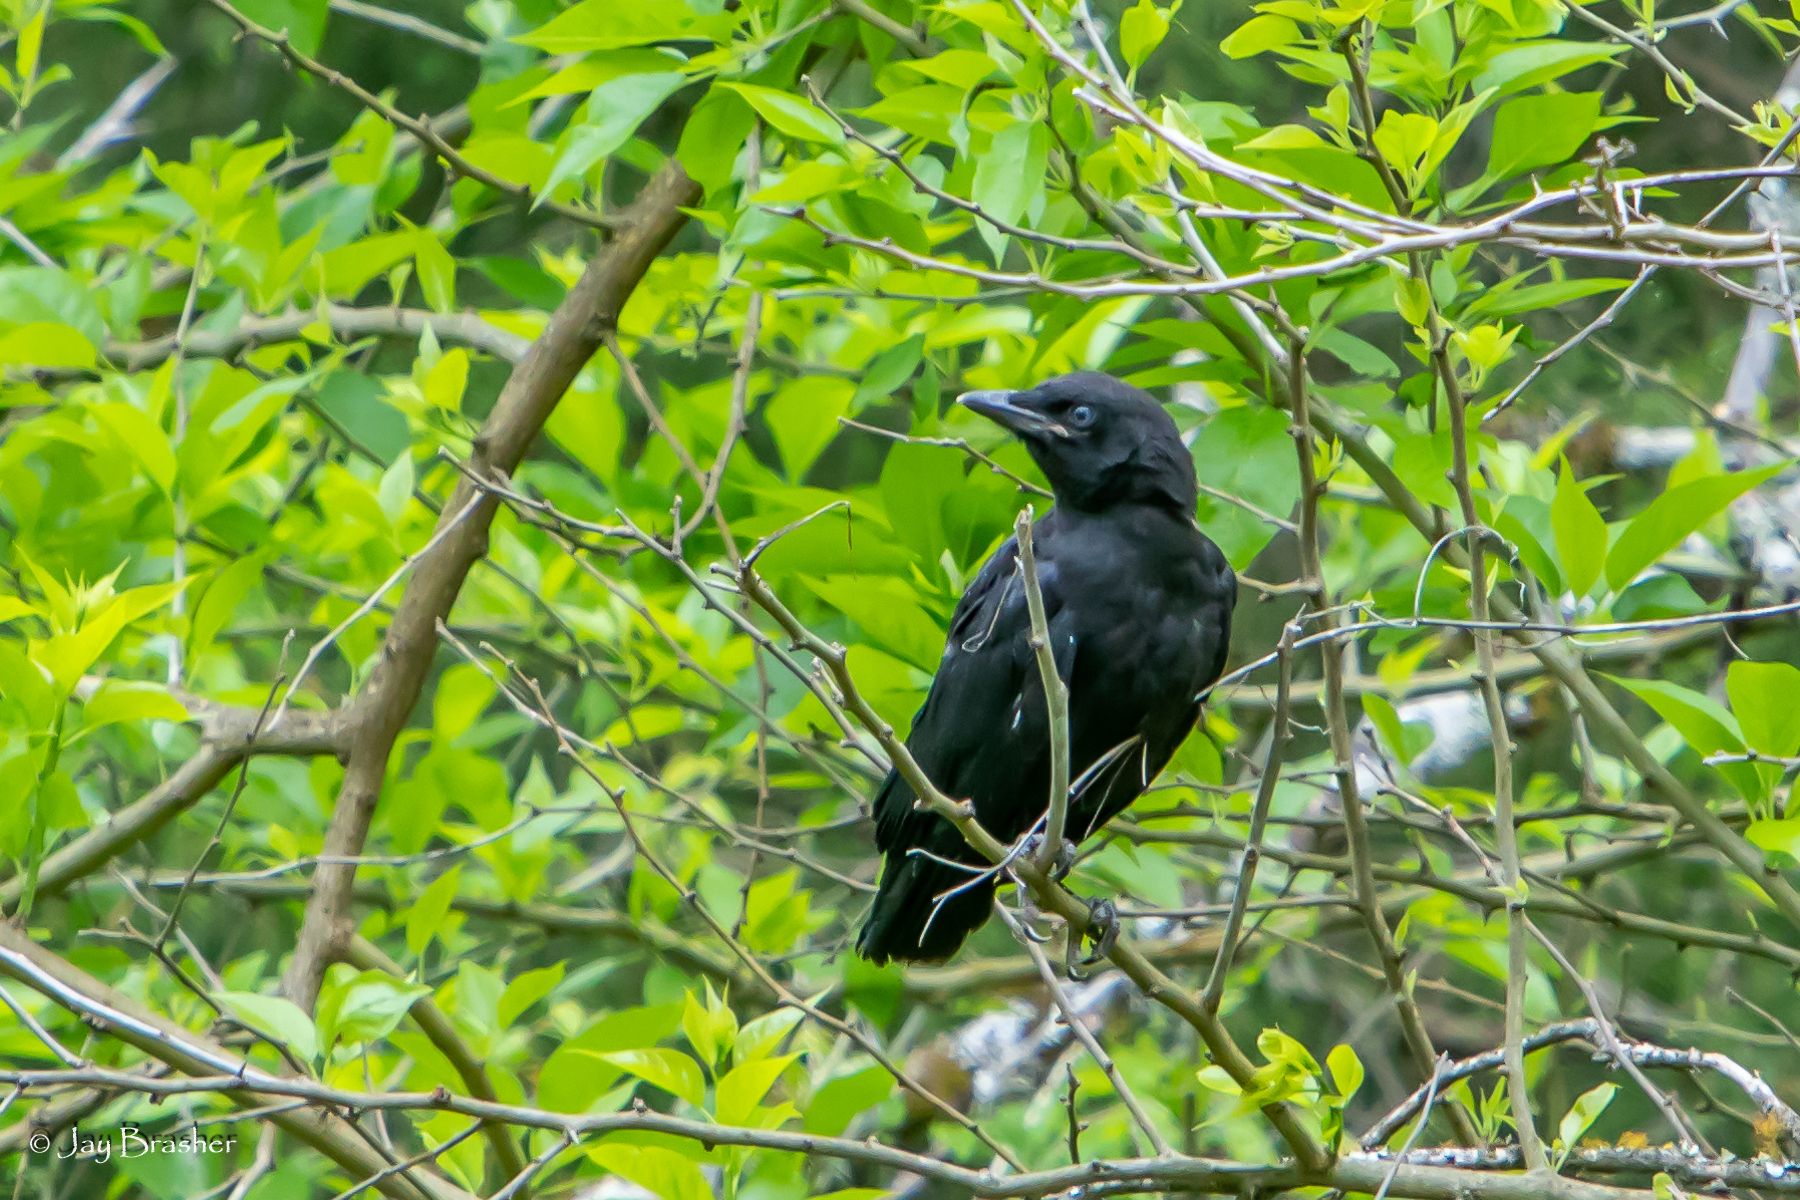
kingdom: Animalia
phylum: Chordata
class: Aves
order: Passeriformes
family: Corvidae
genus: Corvus
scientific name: Corvus brachyrhynchos
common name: American crow
